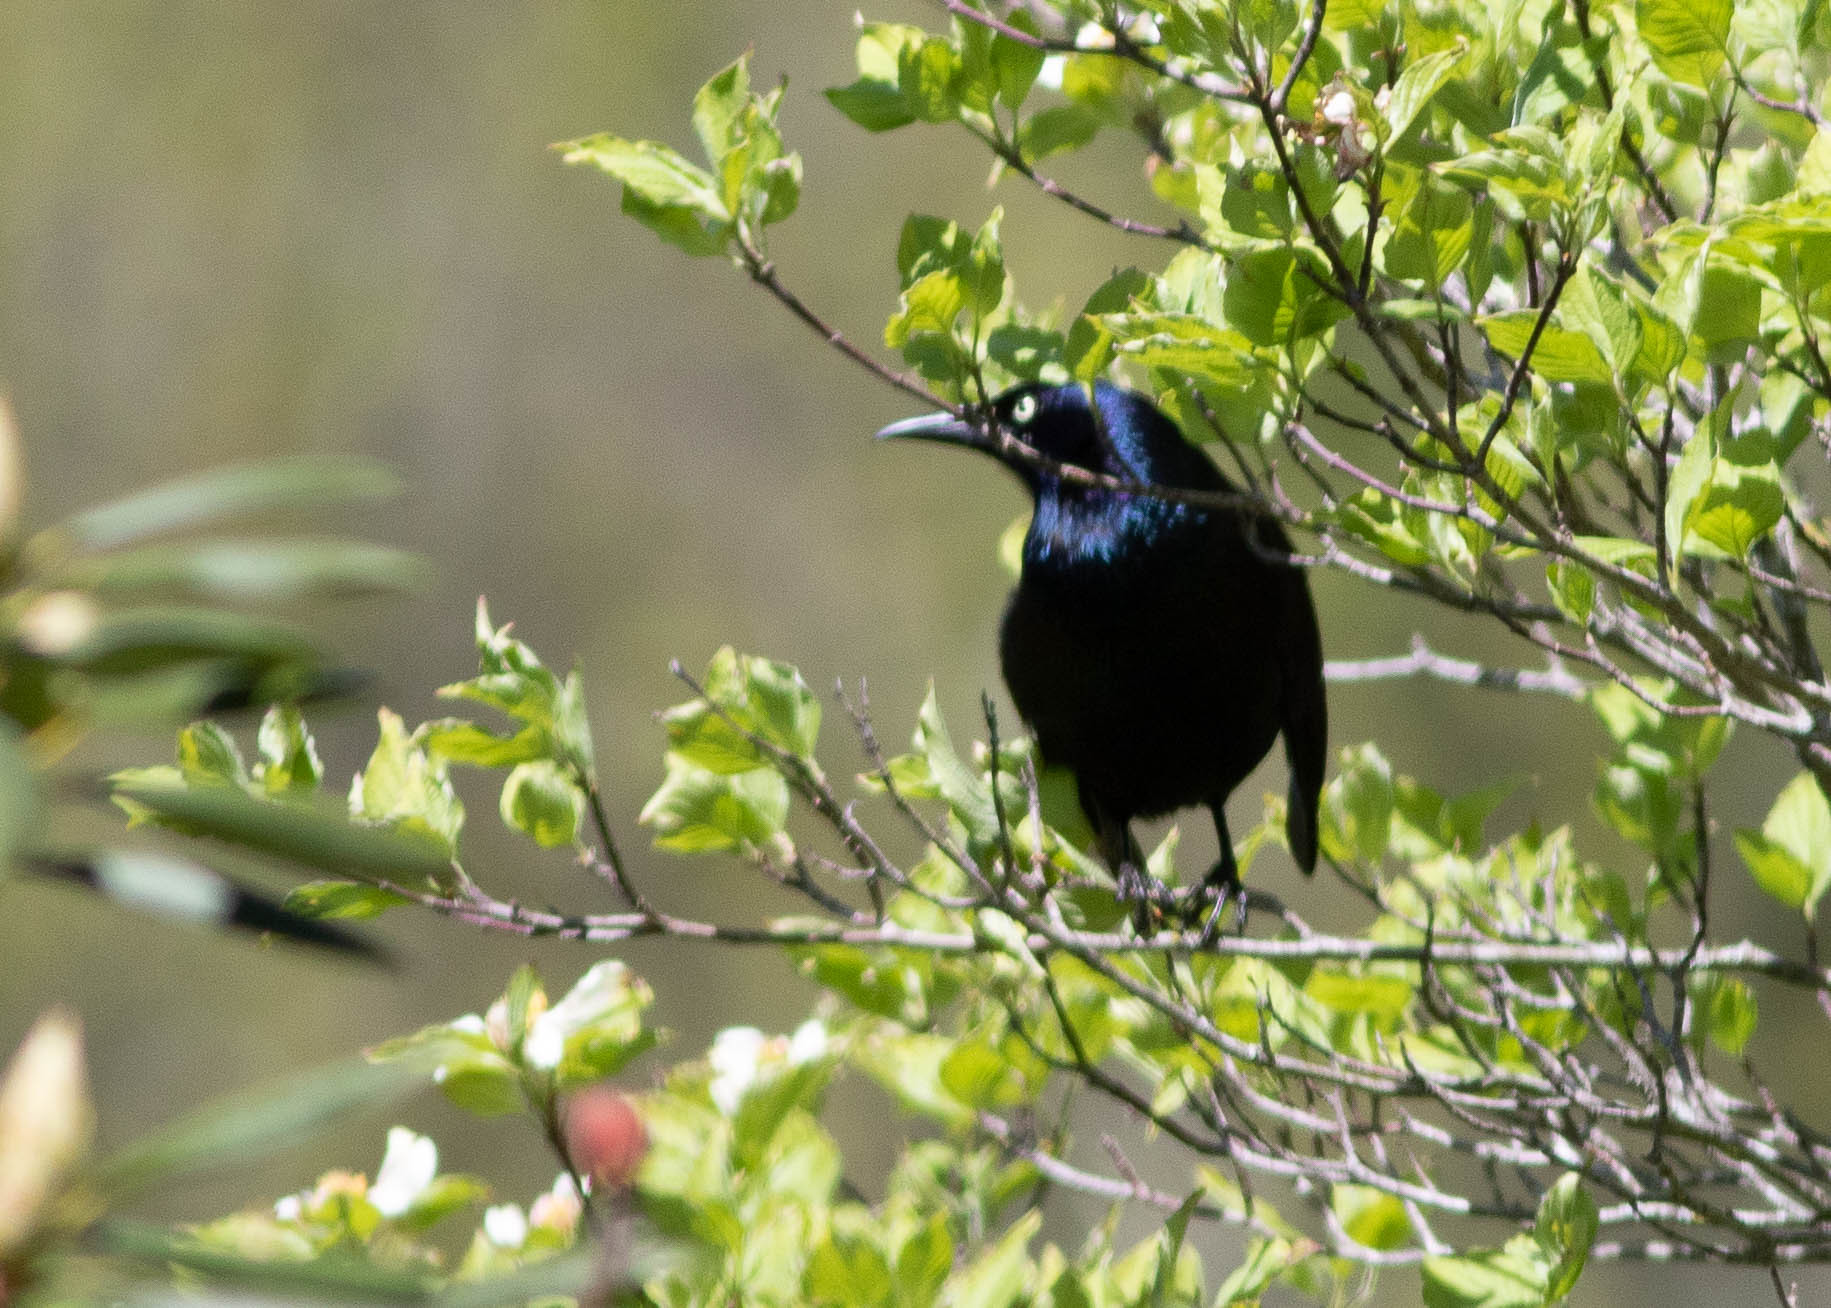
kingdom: Animalia
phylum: Chordata
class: Aves
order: Passeriformes
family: Icteridae
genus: Quiscalus
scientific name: Quiscalus quiscula
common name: Common grackle
